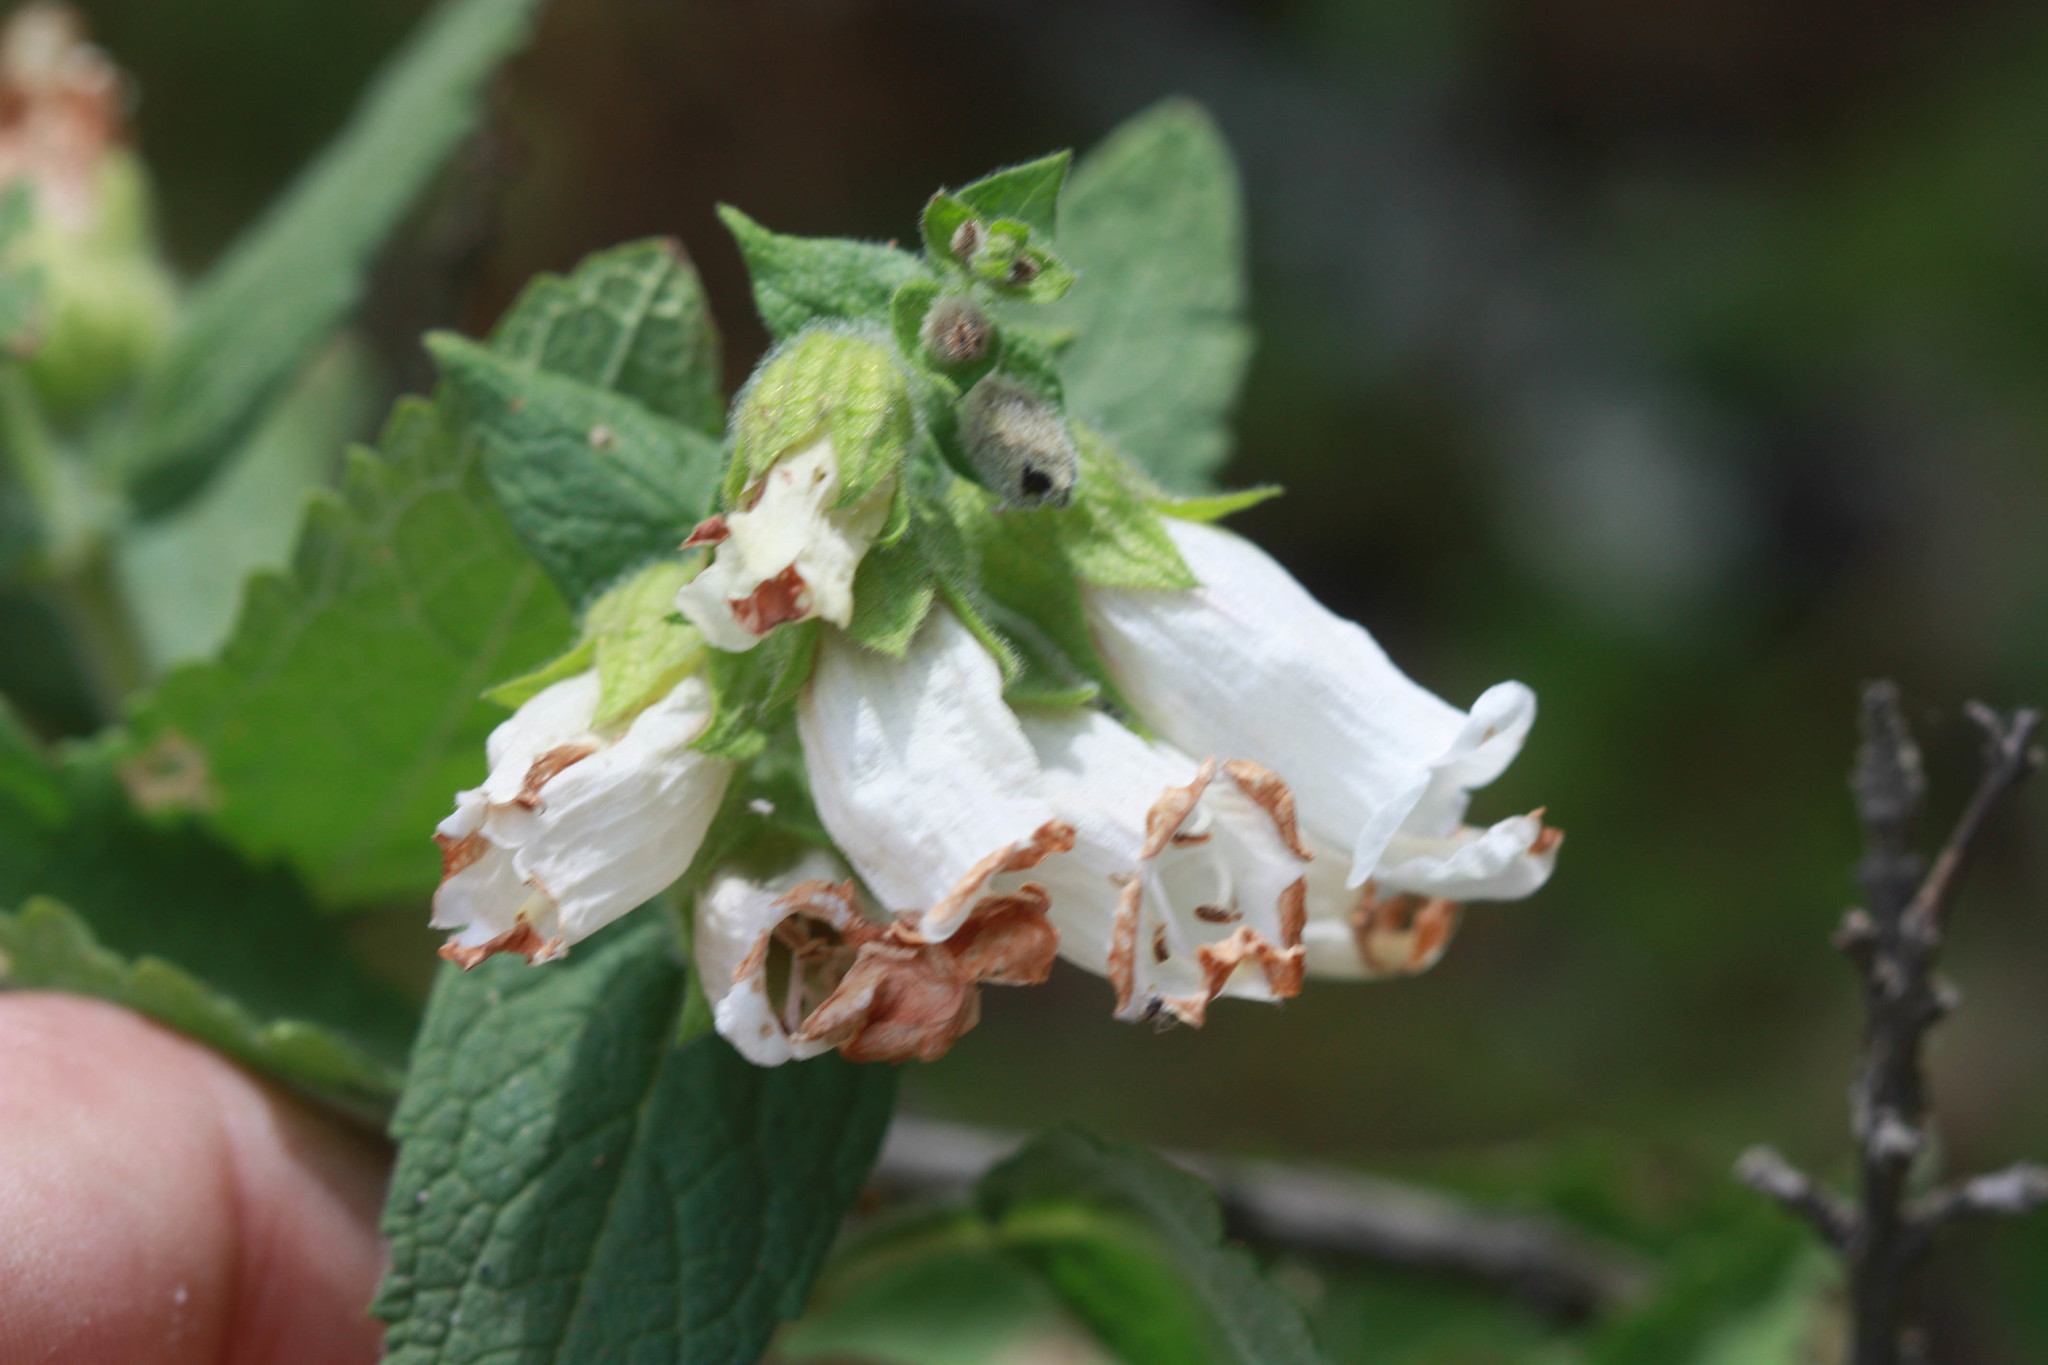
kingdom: Plantae
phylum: Tracheophyta
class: Magnoliopsida
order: Lamiales
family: Lamiaceae
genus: Lepechinia
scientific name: Lepechinia calycina
